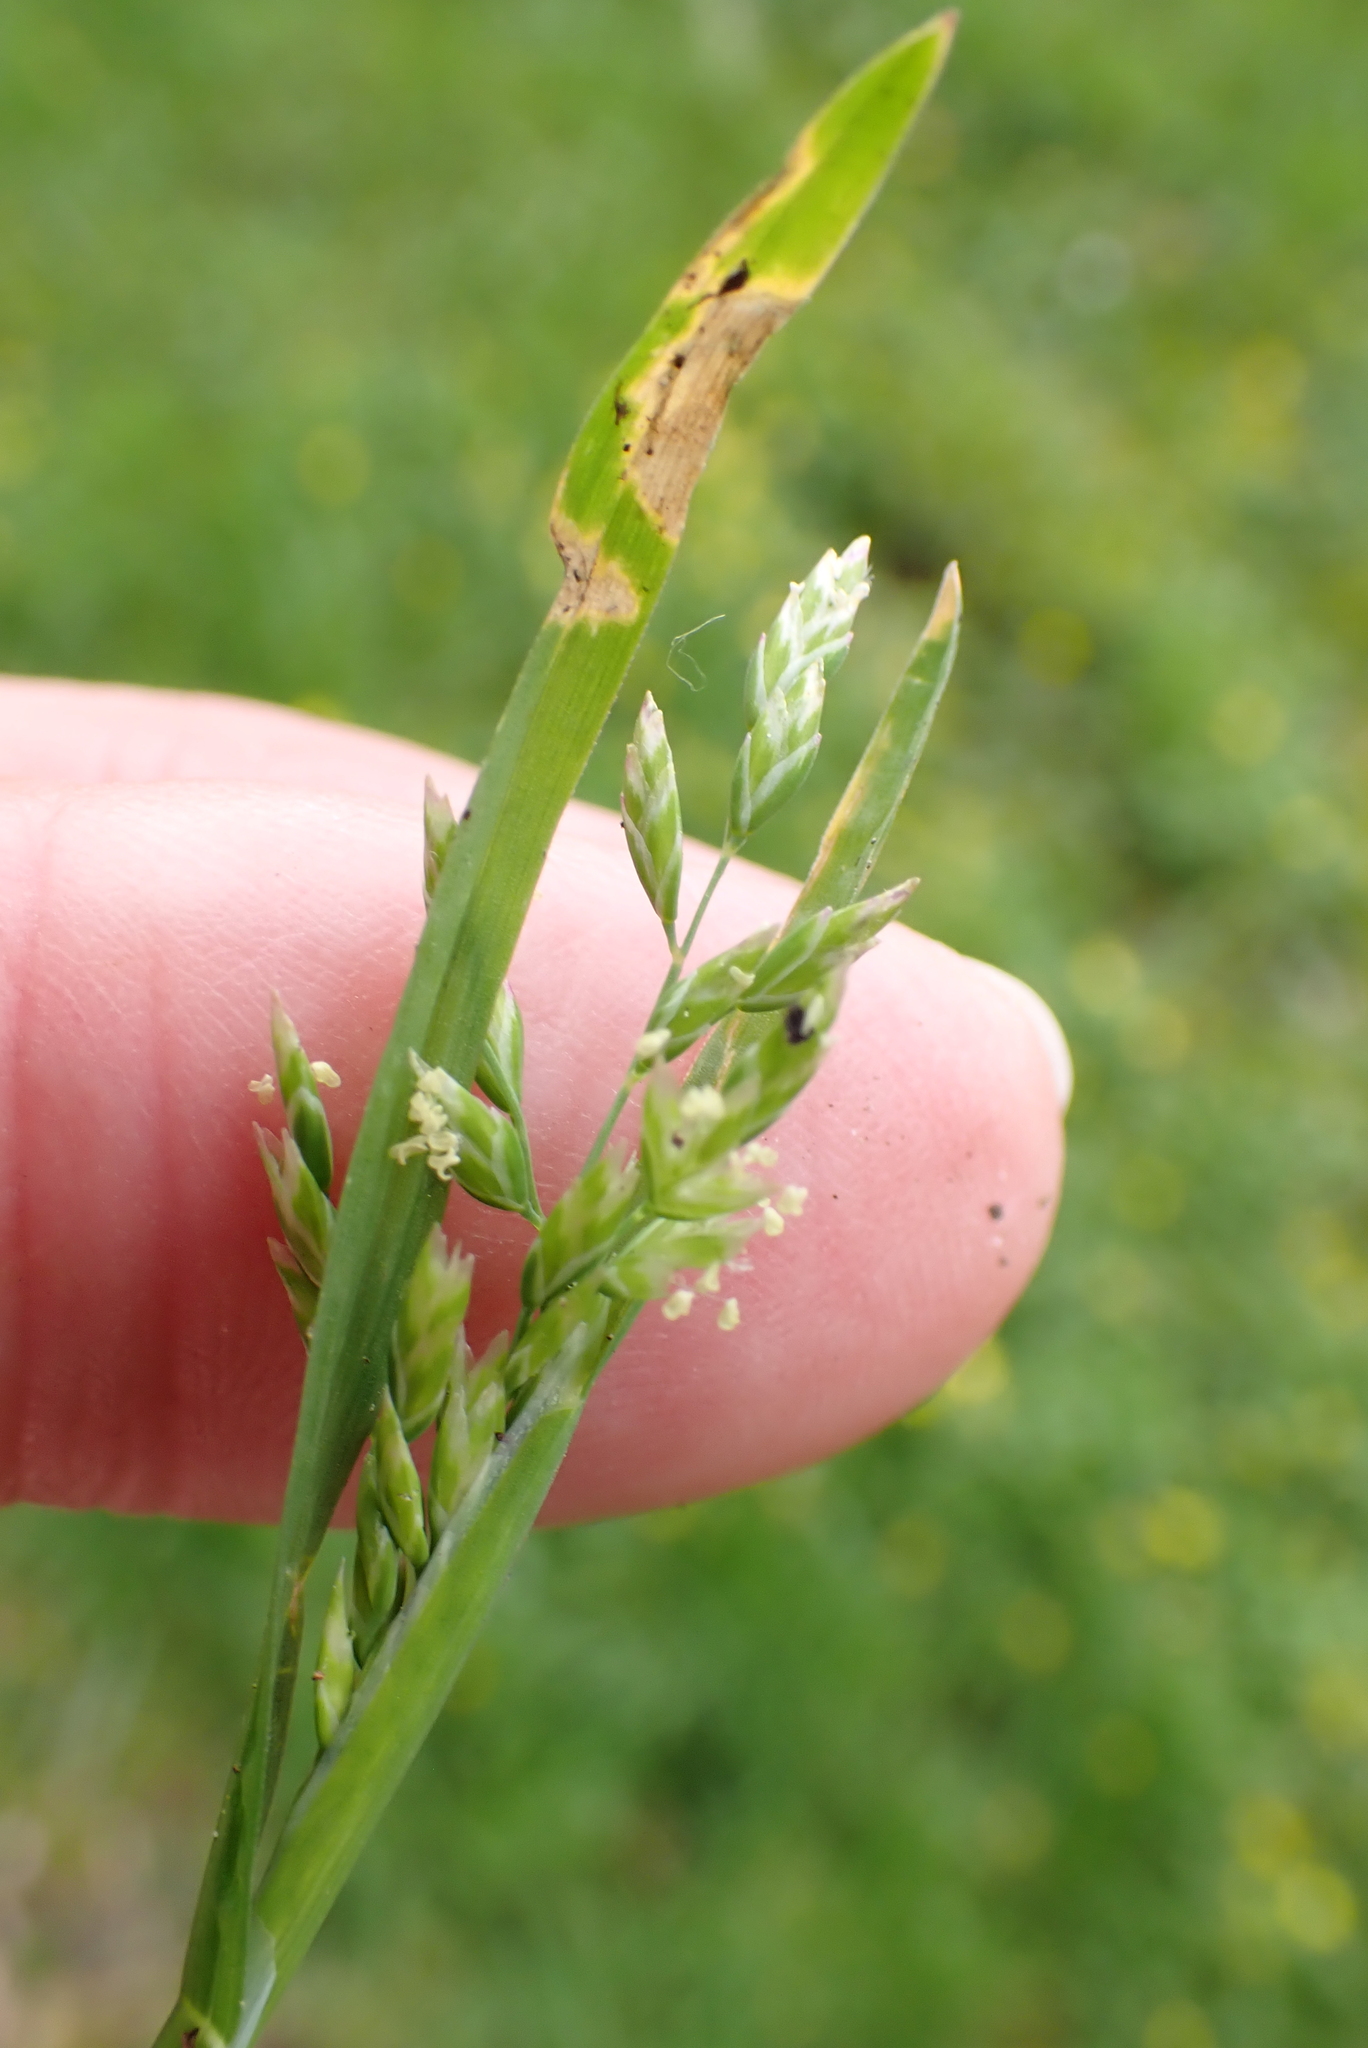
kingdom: Plantae
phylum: Tracheophyta
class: Liliopsida
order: Poales
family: Poaceae
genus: Poa
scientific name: Poa annua
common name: Annual bluegrass
